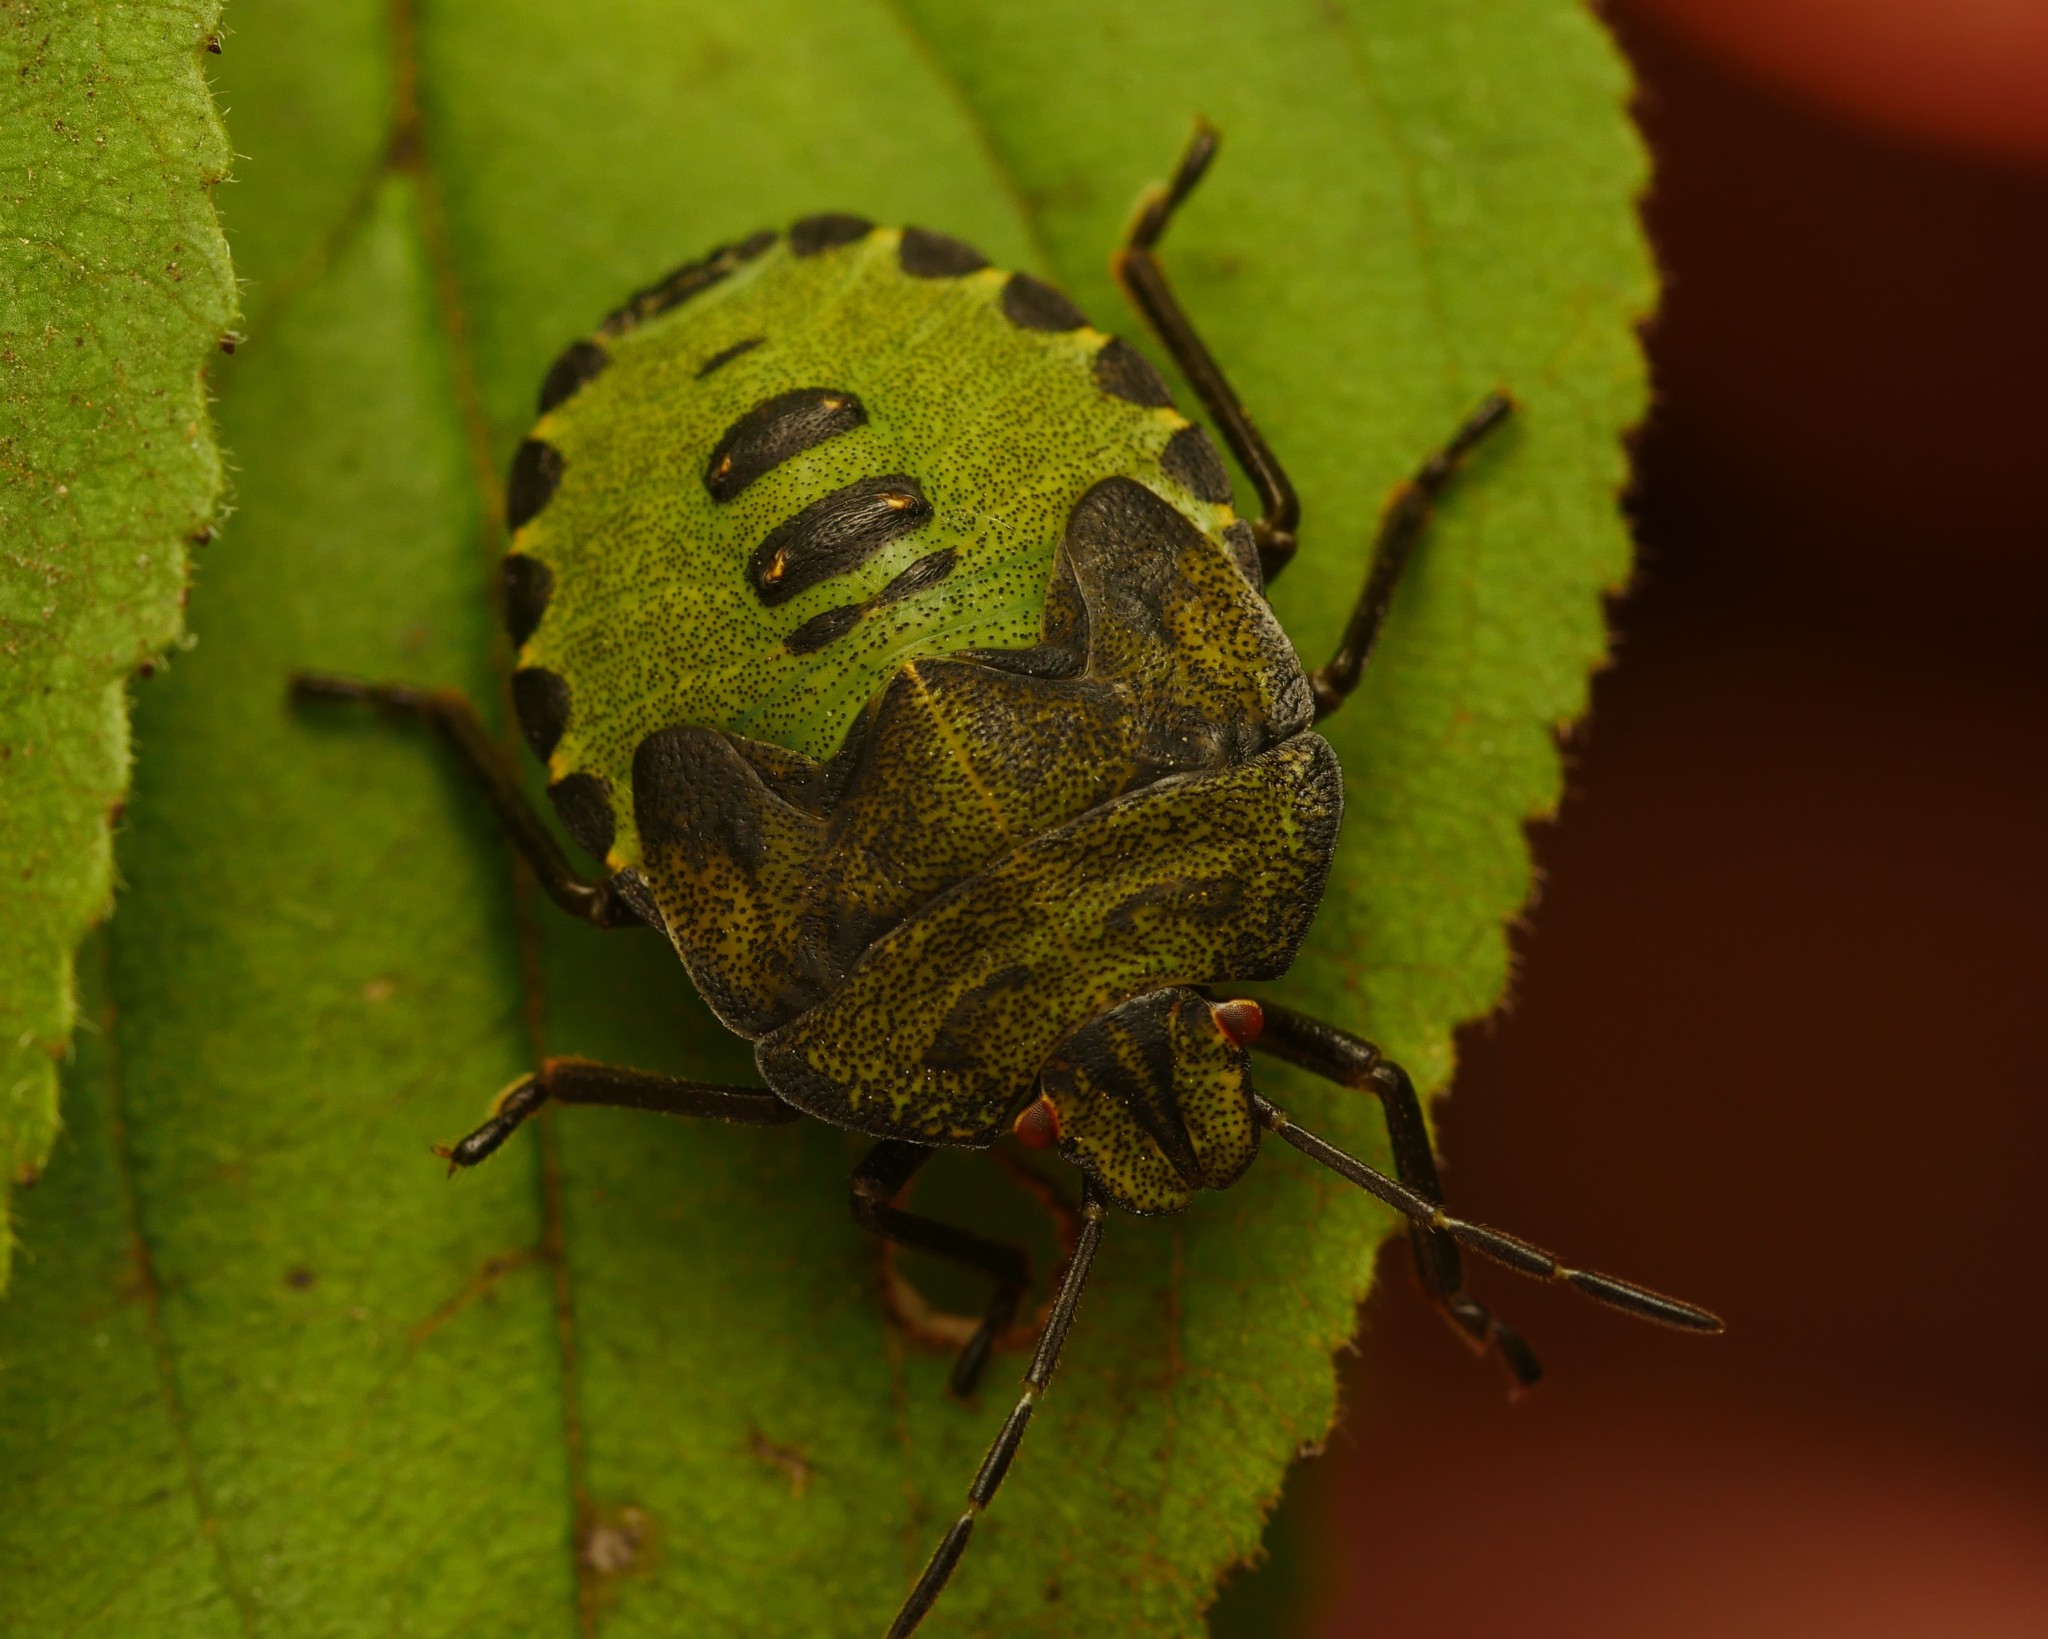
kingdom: Animalia
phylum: Arthropoda
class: Insecta
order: Hemiptera
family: Pentatomidae
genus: Palomena
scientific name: Palomena prasina
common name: Green shieldbug
